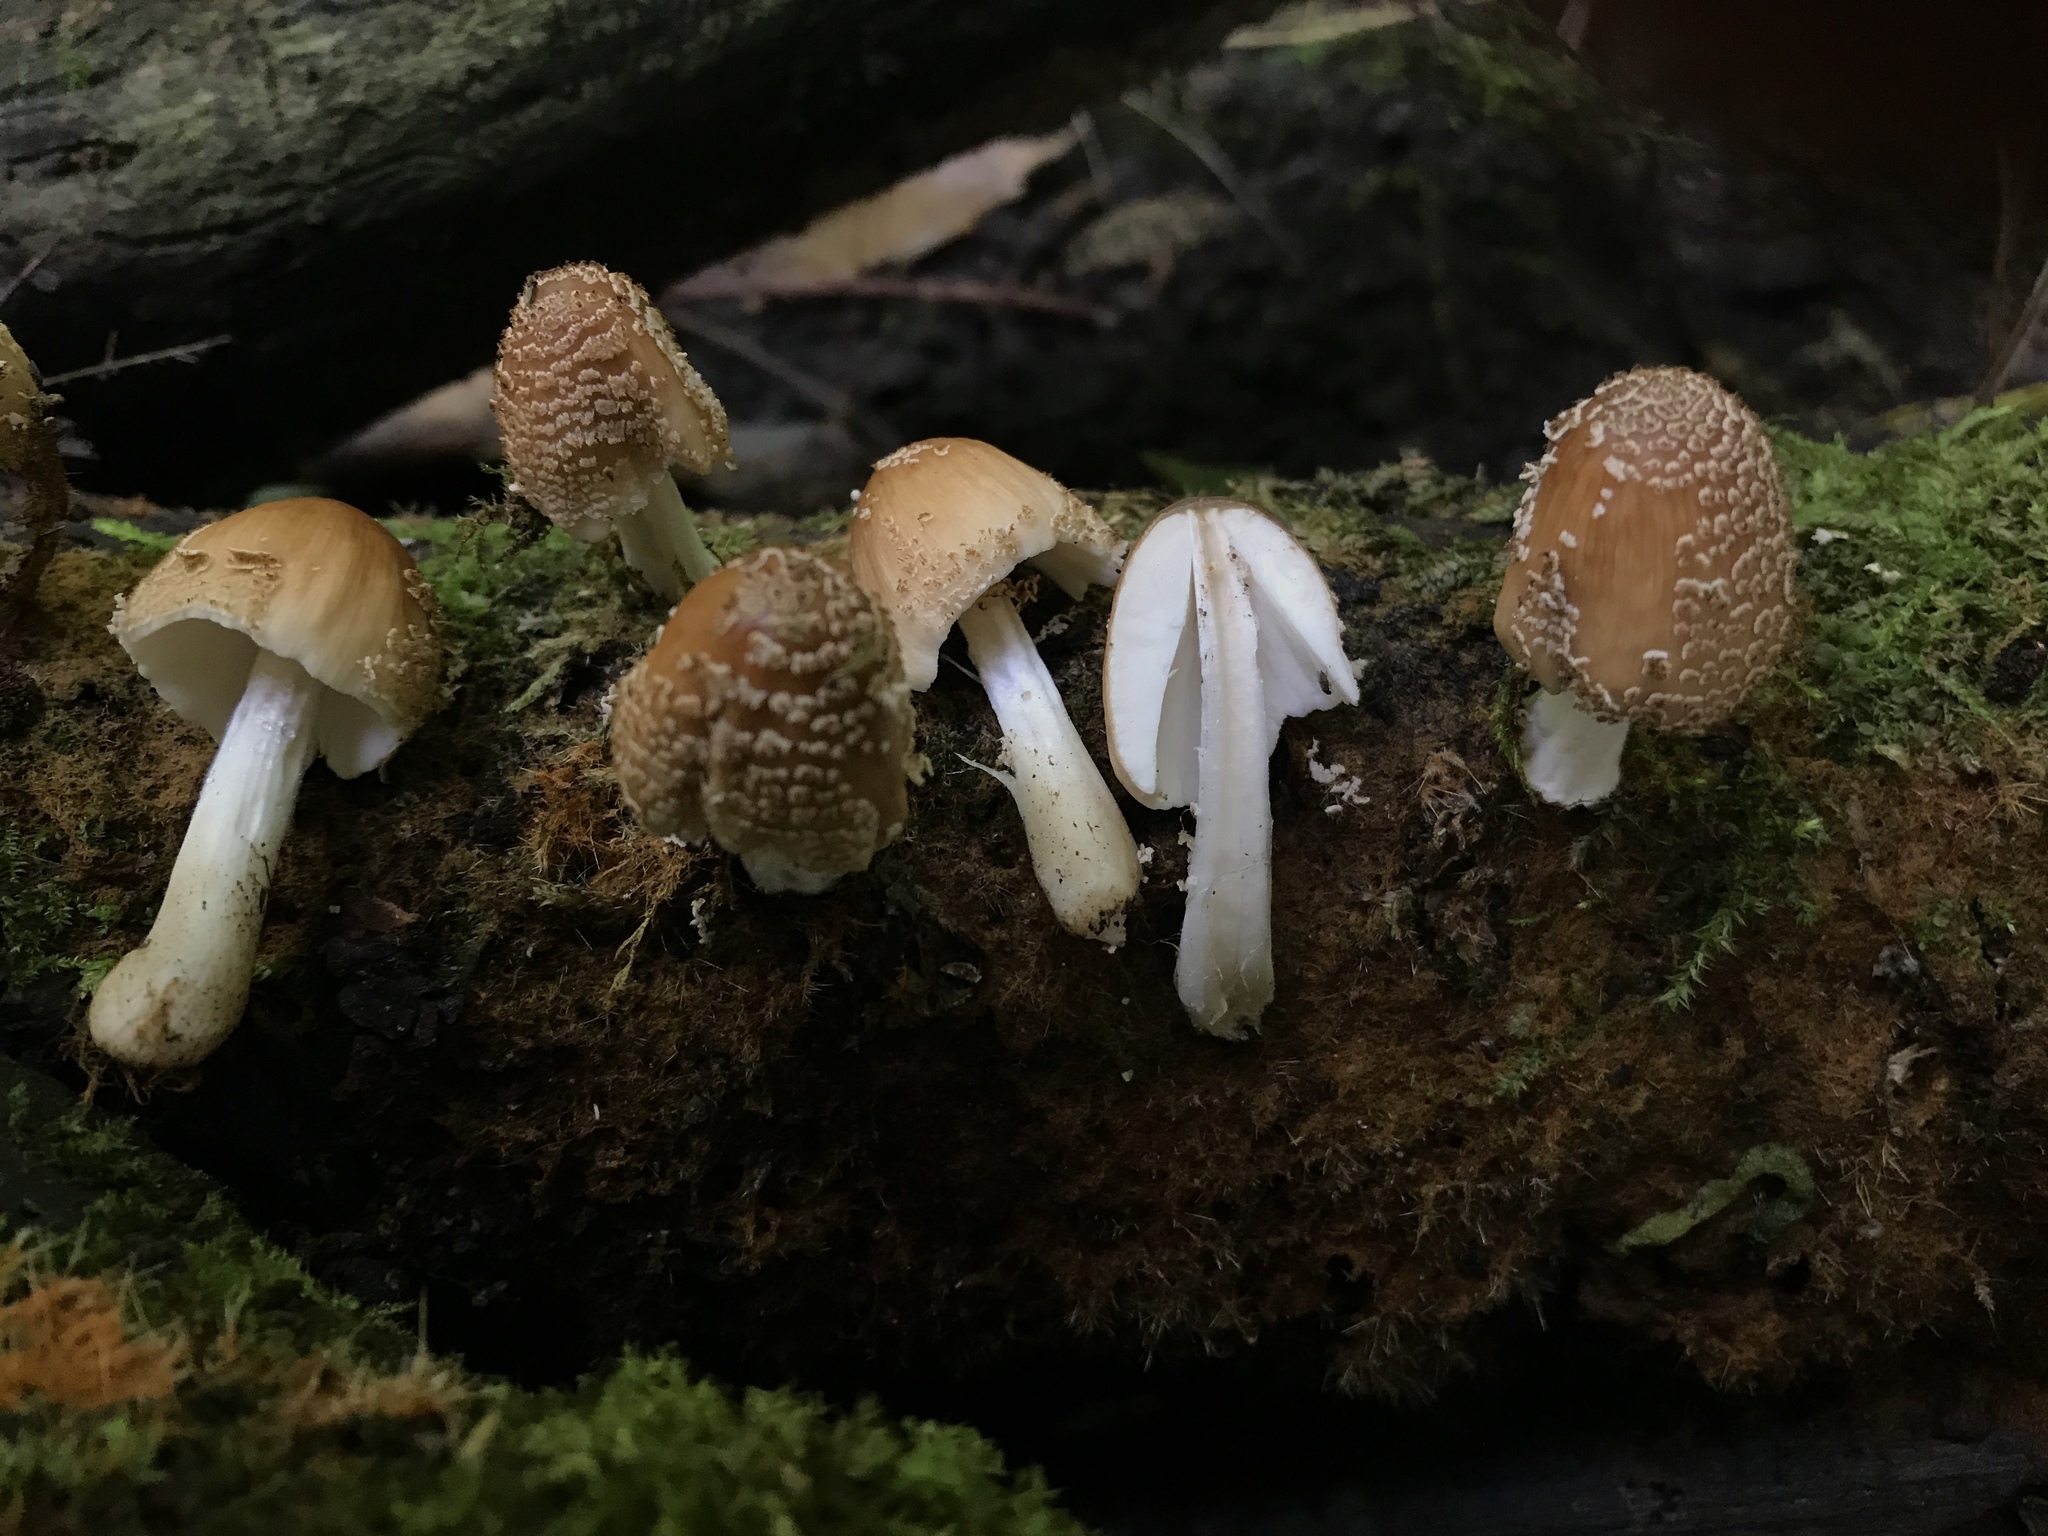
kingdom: Fungi
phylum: Basidiomycota
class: Agaricomycetes
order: Agaricales
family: Psathyrellaceae
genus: Coprinellus
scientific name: Coprinellus radians
